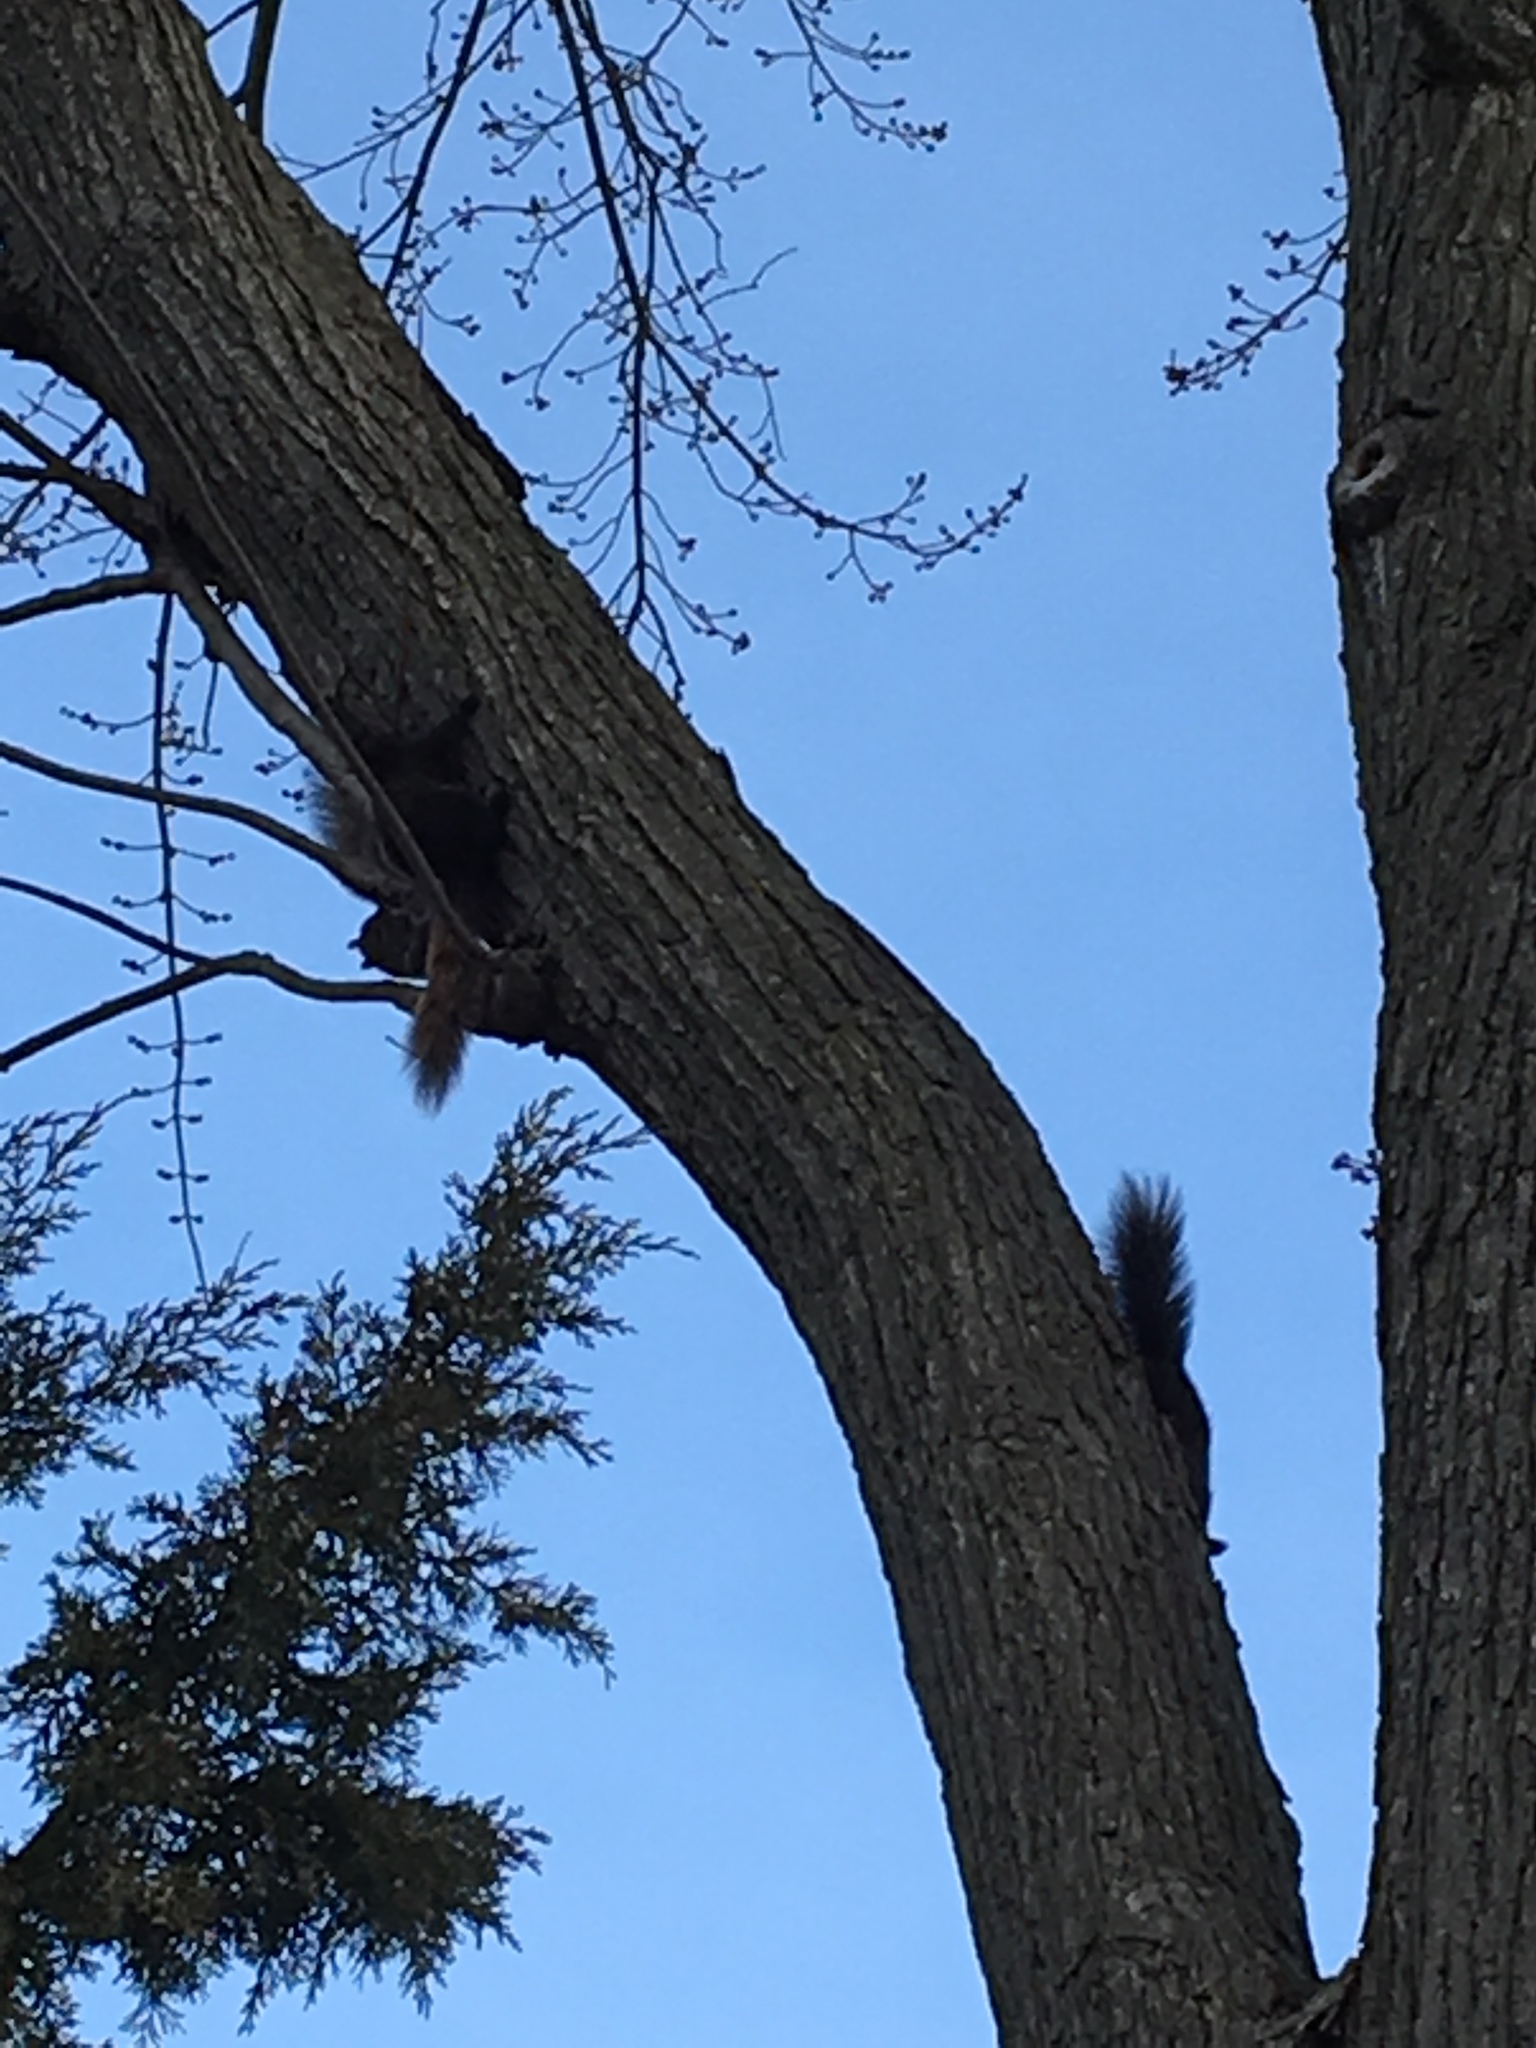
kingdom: Animalia
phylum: Chordata
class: Mammalia
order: Rodentia
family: Sciuridae
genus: Sciurus
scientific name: Sciurus carolinensis
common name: Eastern gray squirrel
